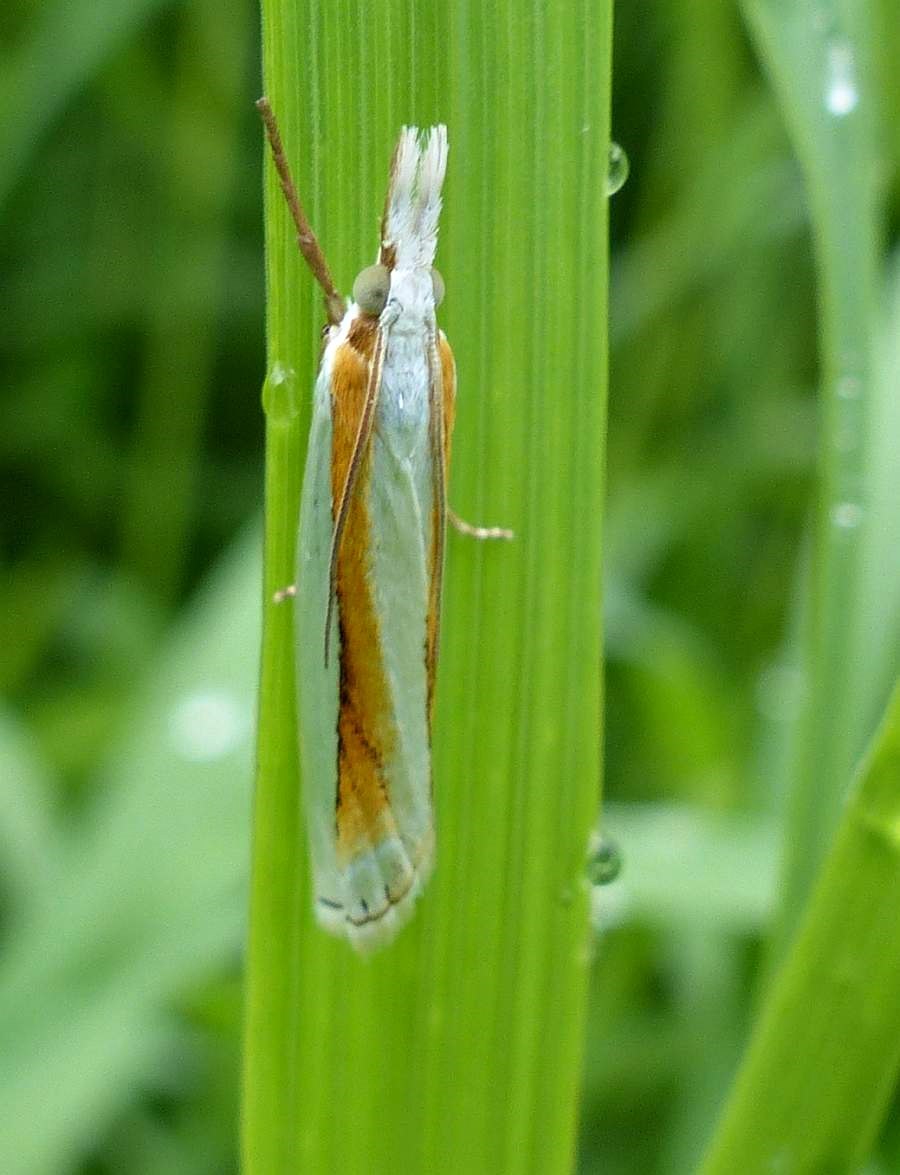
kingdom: Animalia
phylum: Arthropoda
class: Insecta
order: Lepidoptera
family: Crambidae
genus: Crambus
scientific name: Crambus girardellus
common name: Girard's grass-veneer
